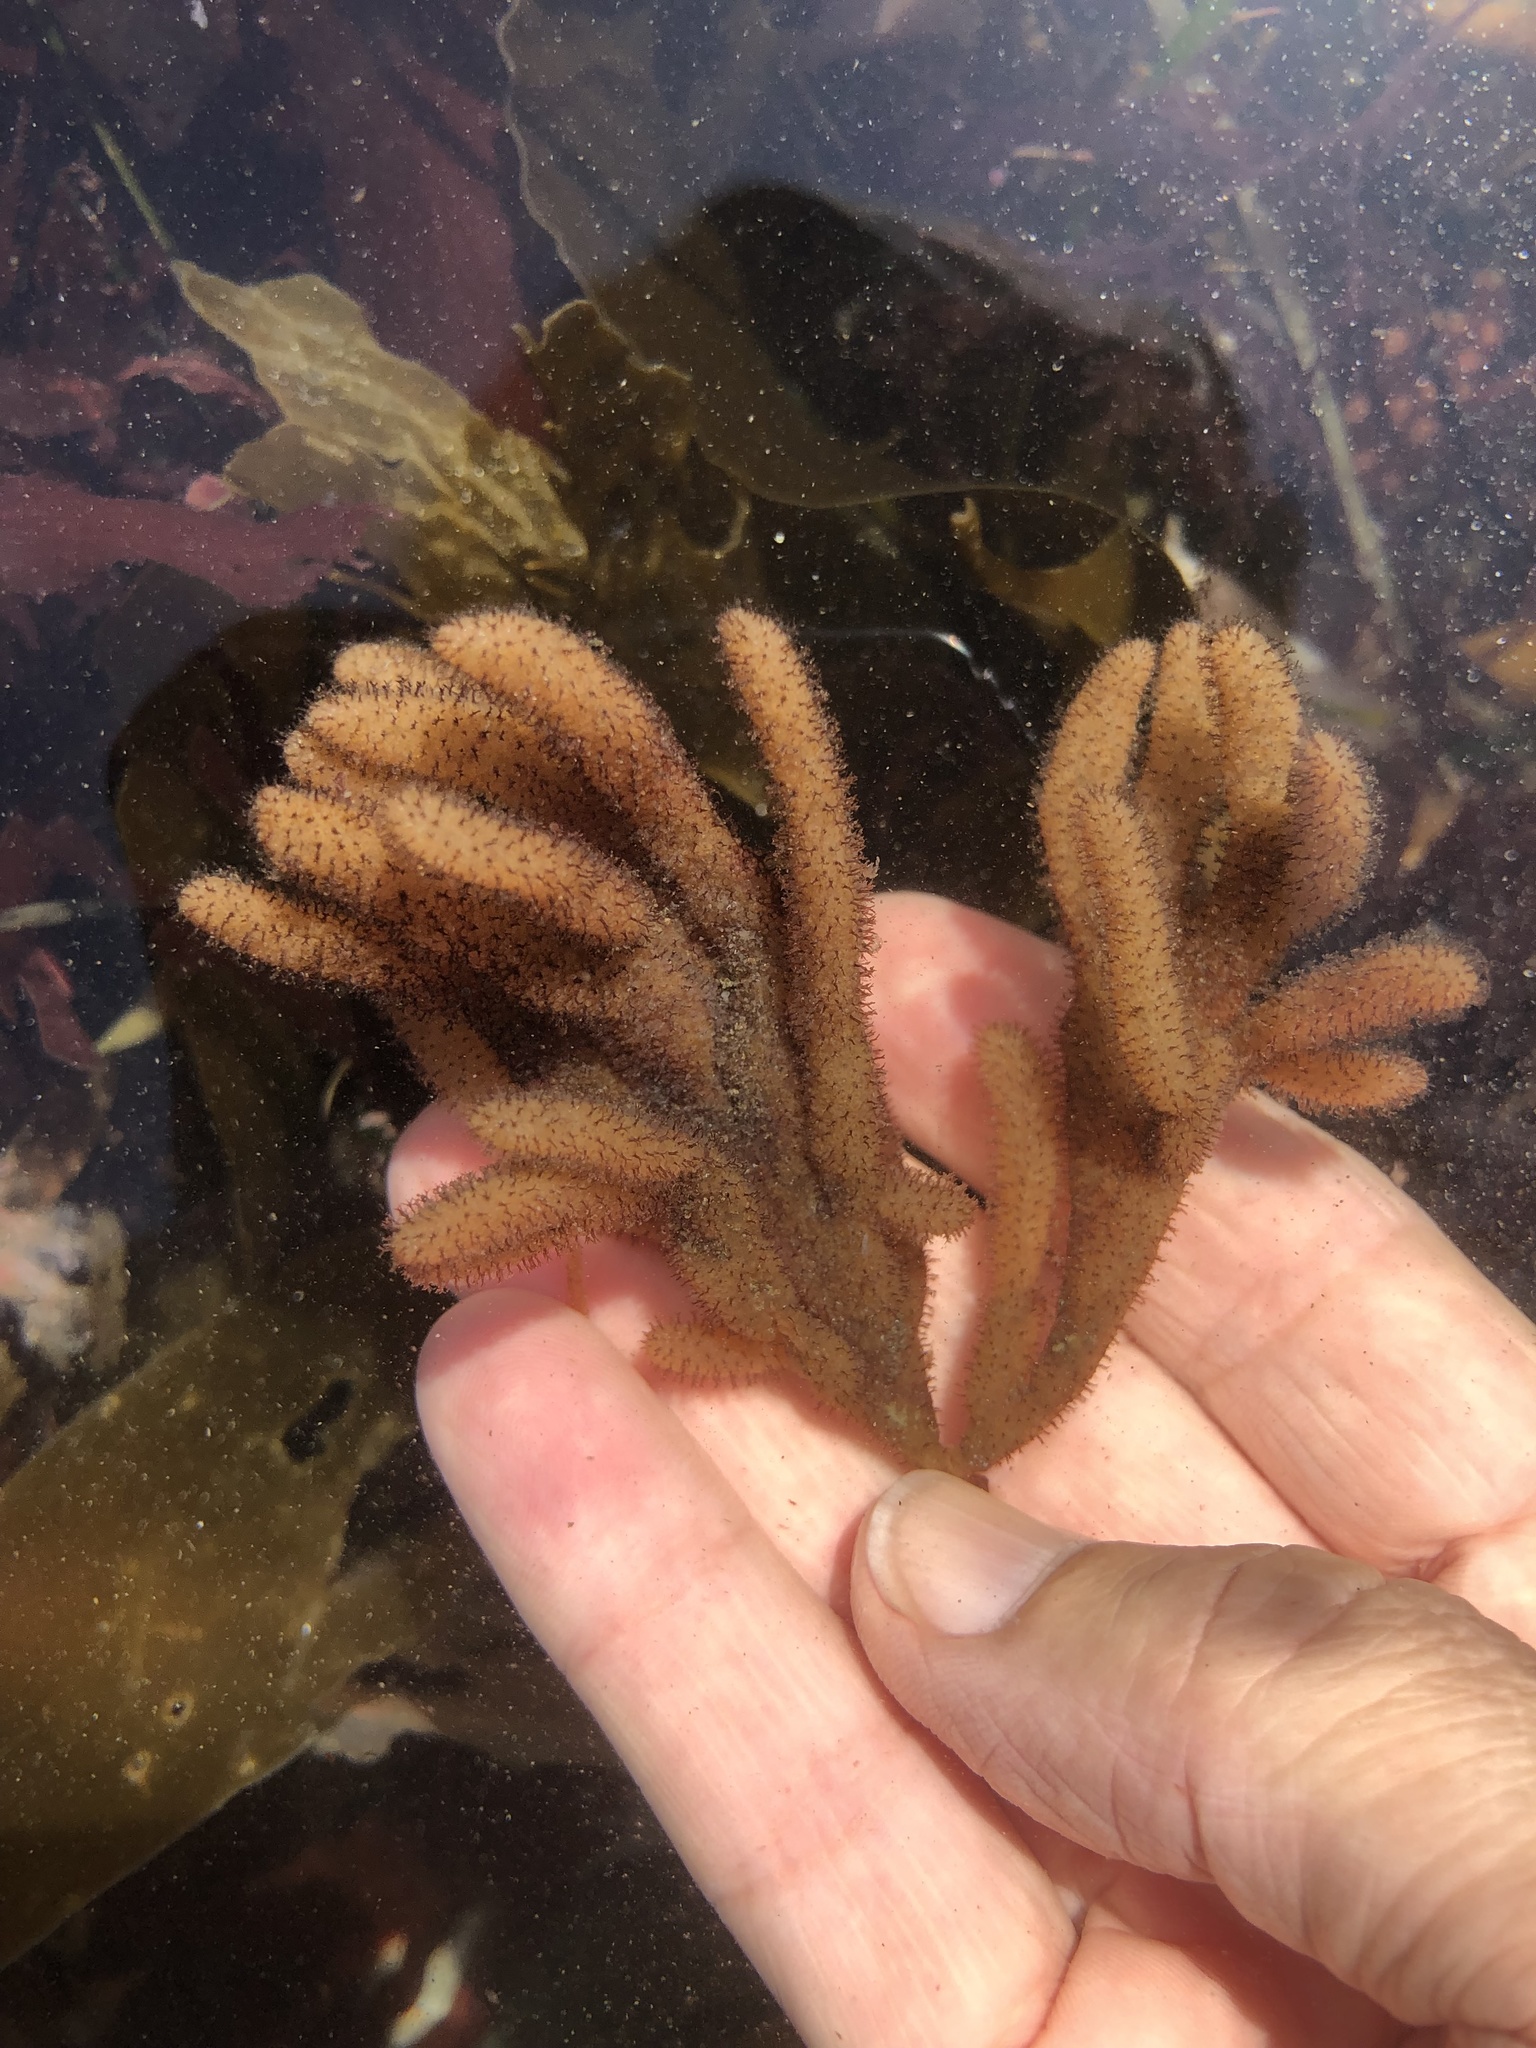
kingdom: Animalia
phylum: Bryozoa
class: Gymnolaemata
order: Ctenostomatida
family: Flustrellidridae
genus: Flustrellidra
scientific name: Flustrellidra corniculata
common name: Spiny leather bryozoan
